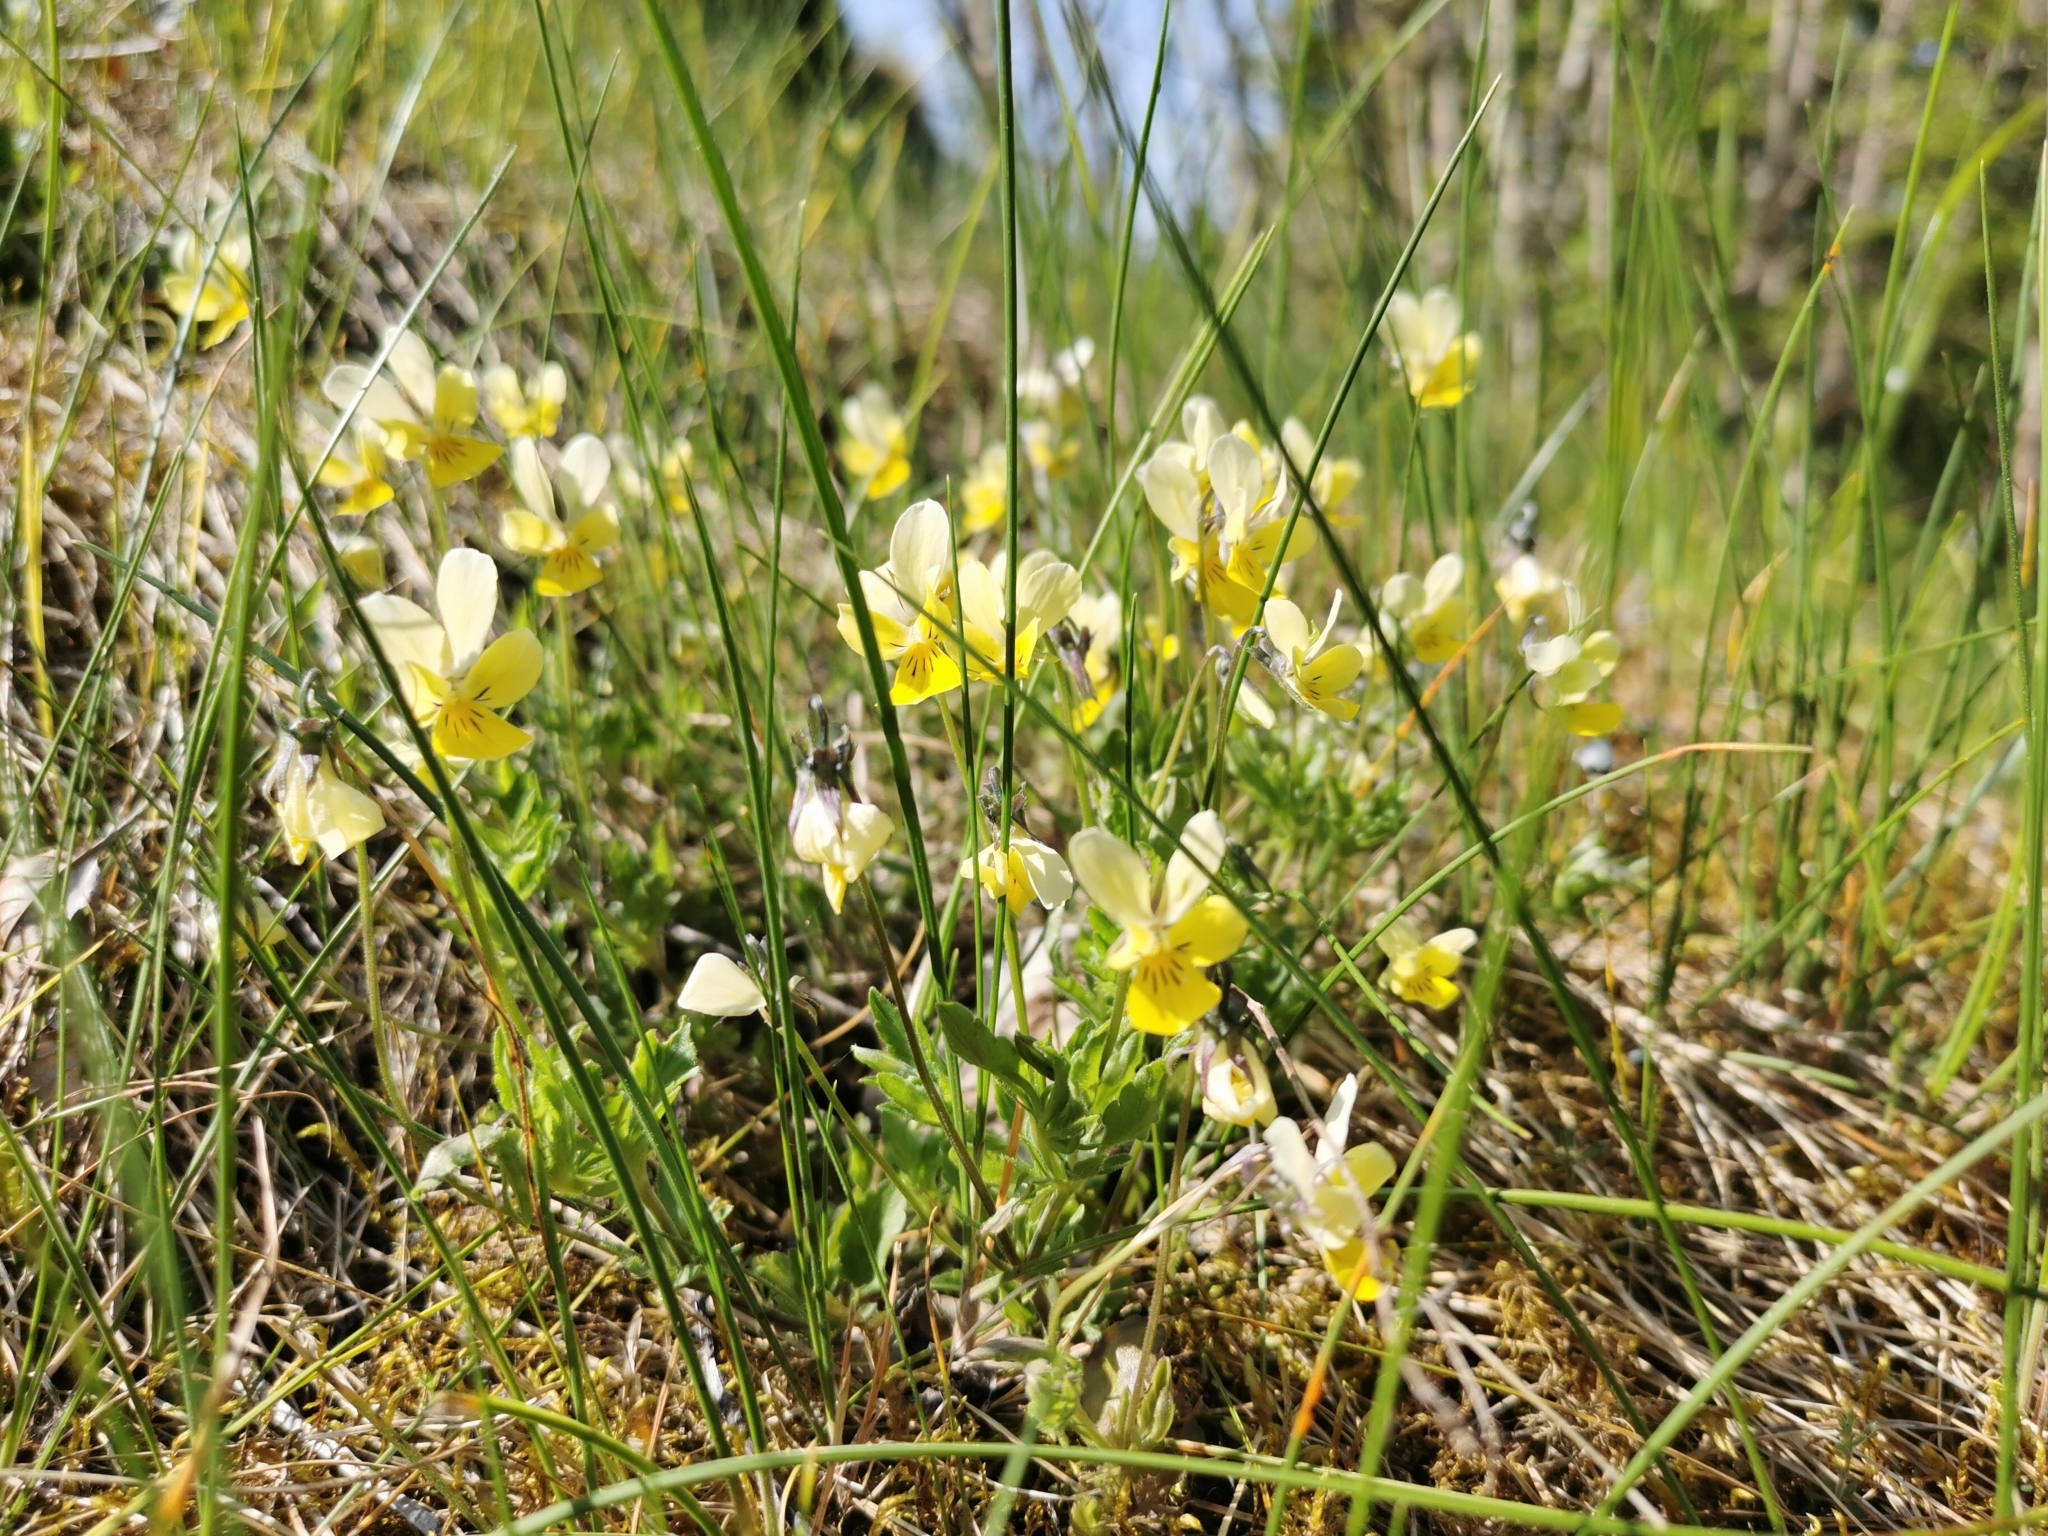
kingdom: Plantae
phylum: Tracheophyta
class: Magnoliopsida
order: Malpighiales
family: Violaceae
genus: Viola
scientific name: Viola lutea
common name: Mountain pansy
